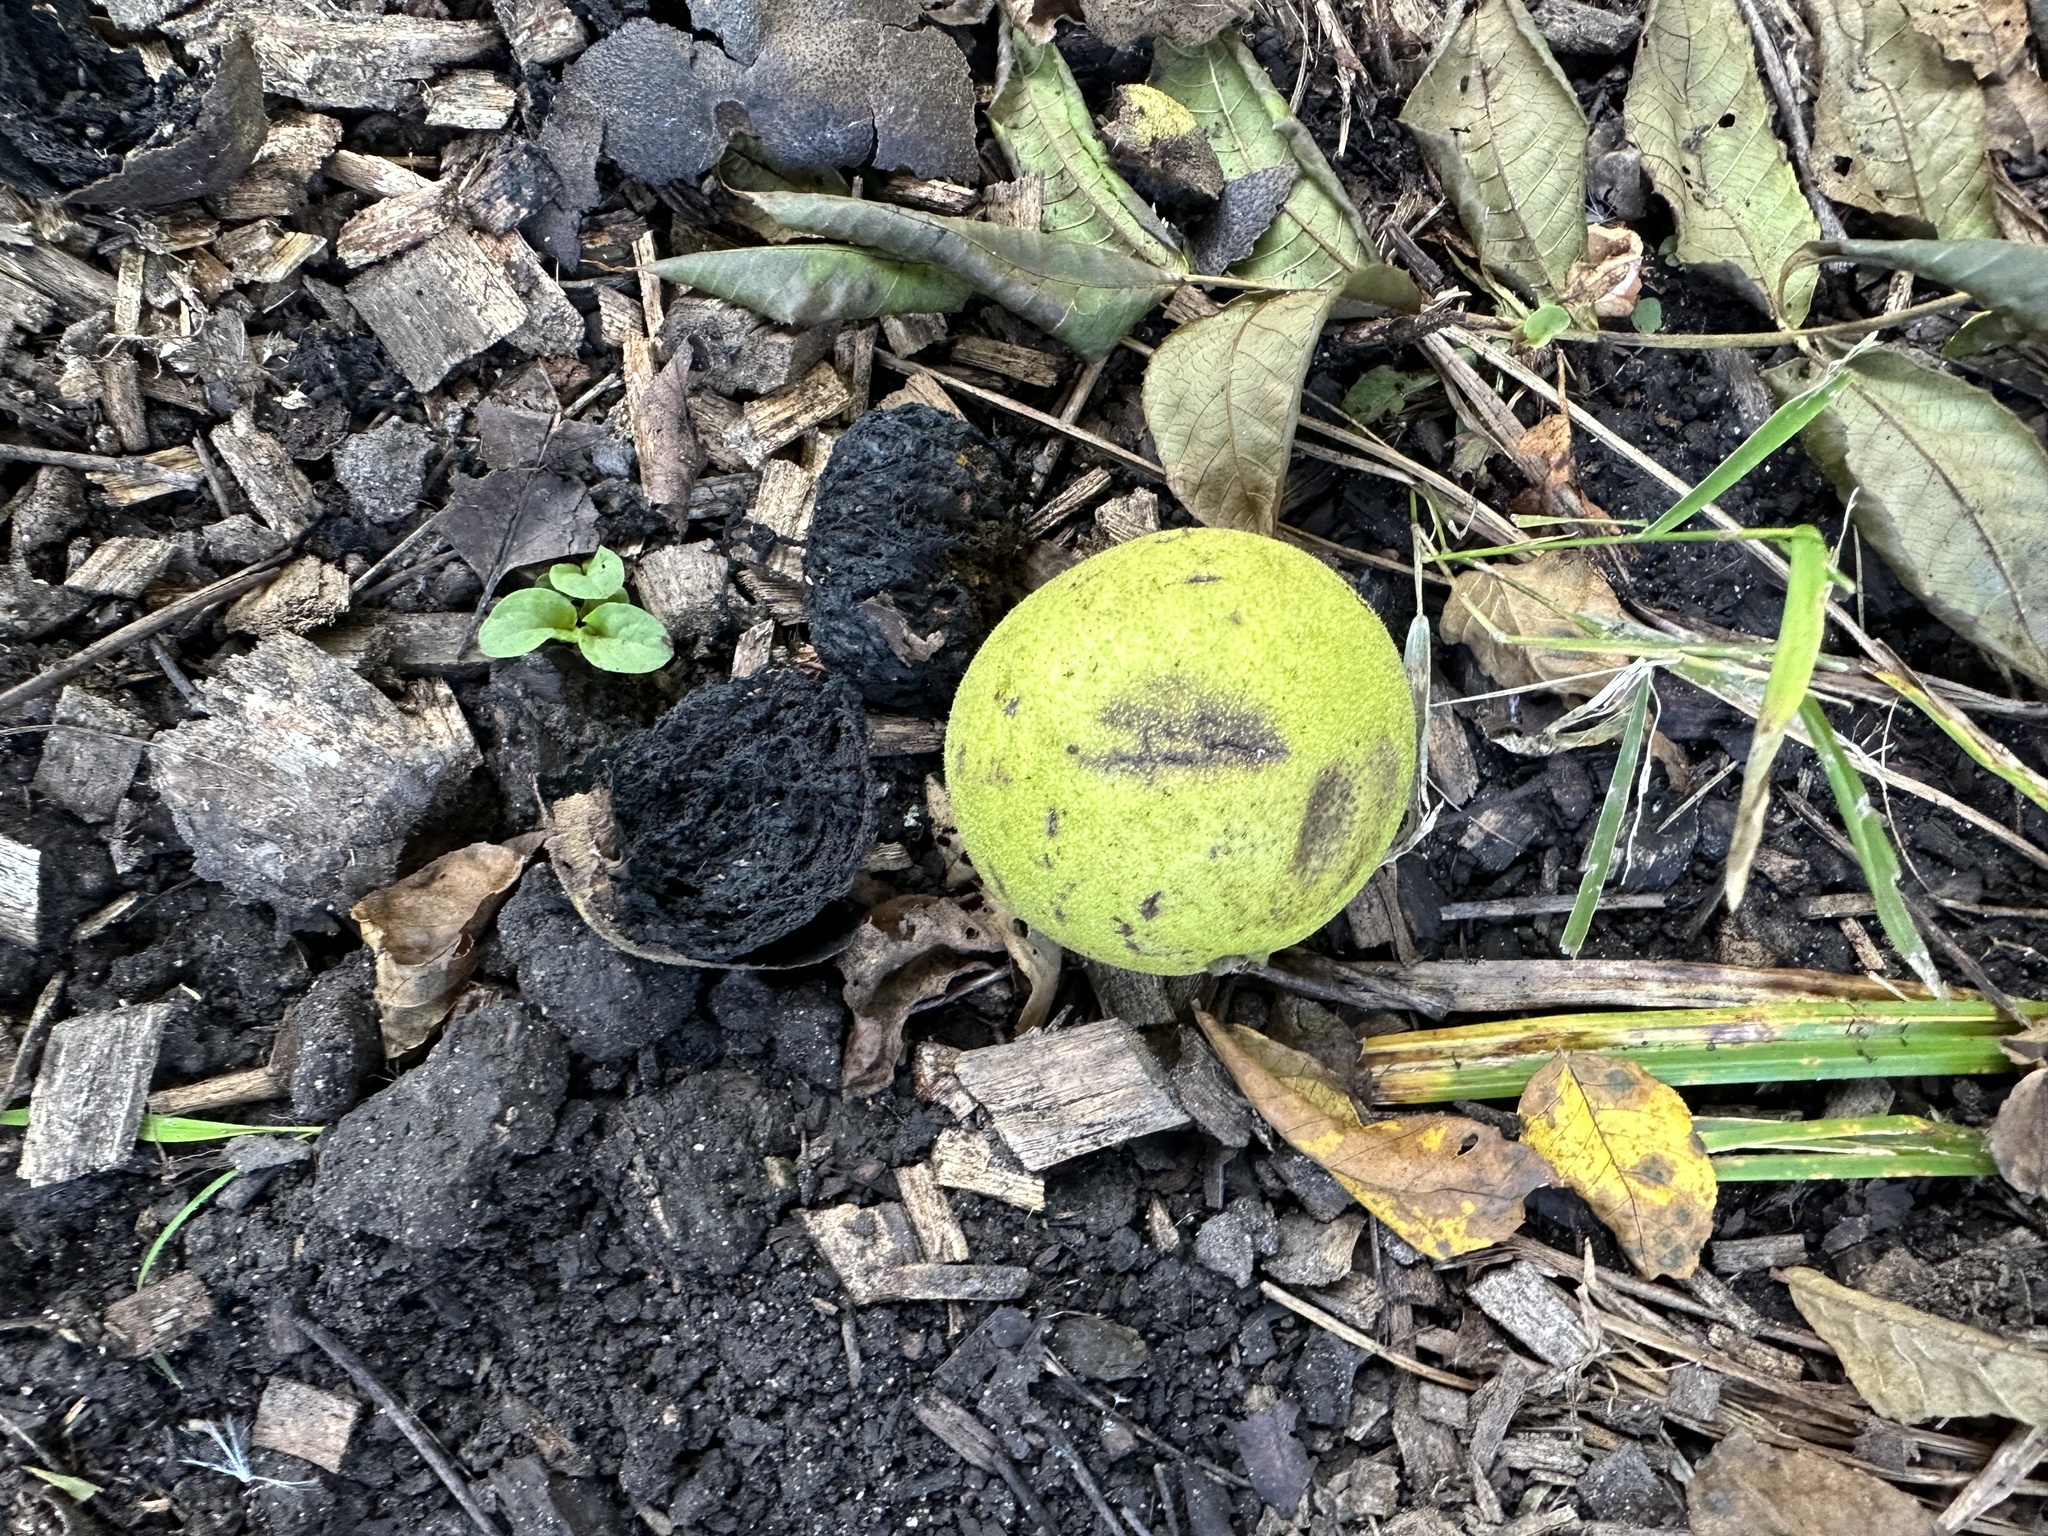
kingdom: Plantae
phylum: Tracheophyta
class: Magnoliopsida
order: Fagales
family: Juglandaceae
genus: Juglans
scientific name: Juglans nigra
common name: Black walnut
